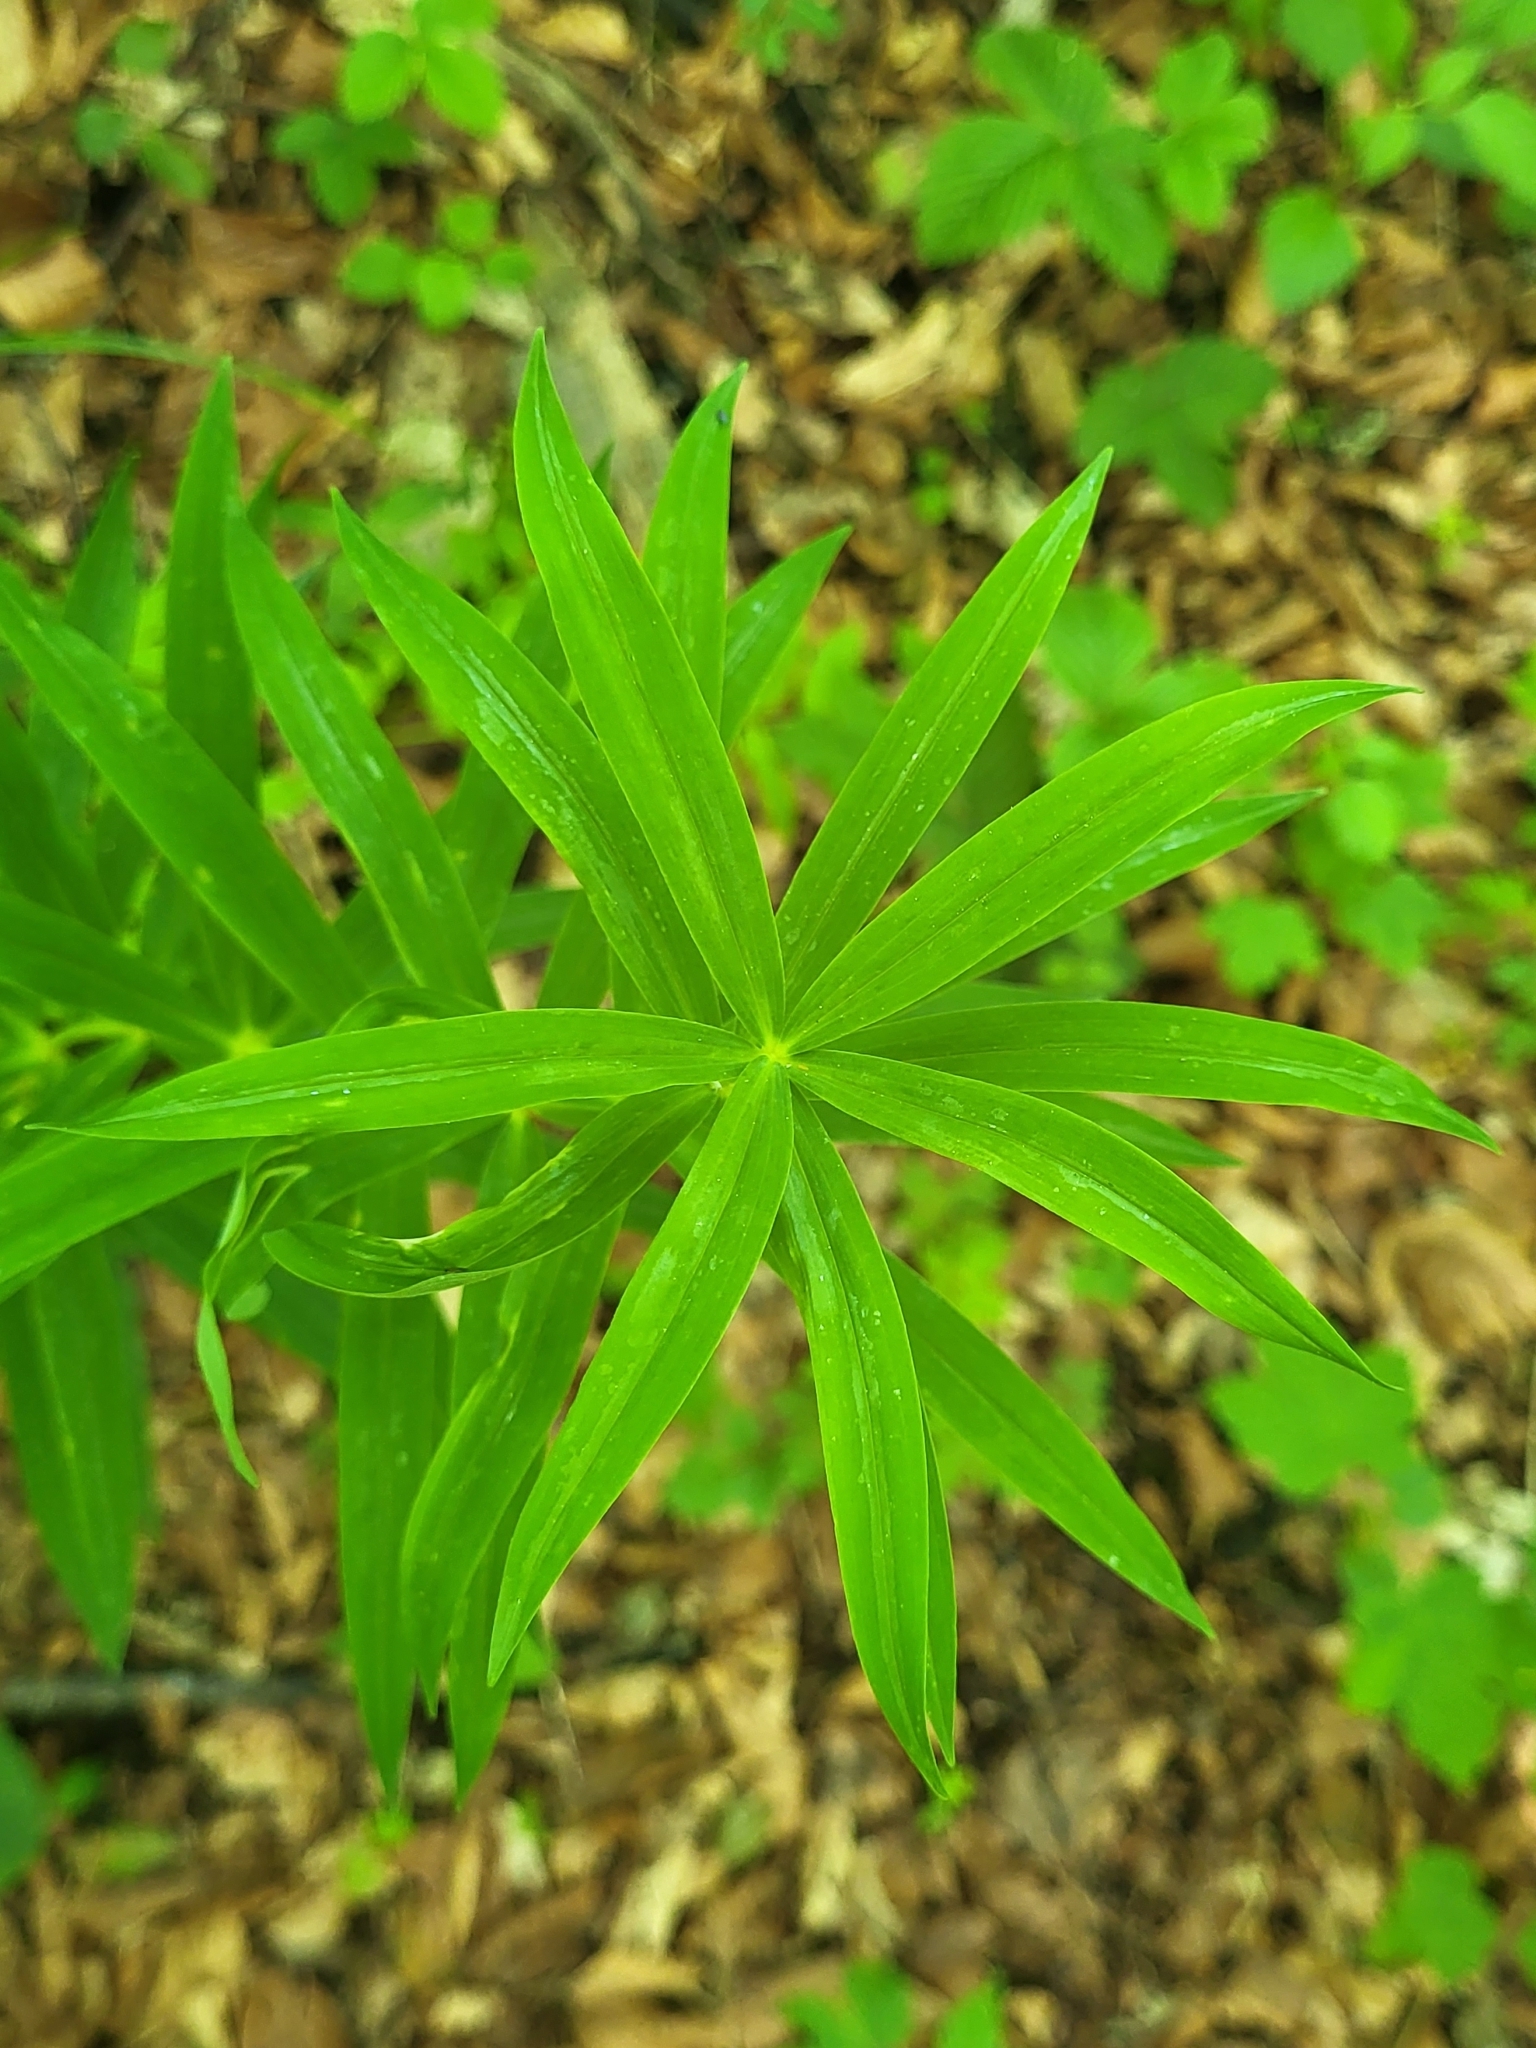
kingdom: Plantae
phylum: Tracheophyta
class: Liliopsida
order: Asparagales
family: Asparagaceae
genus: Polygonatum
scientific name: Polygonatum verticillatum
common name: Whorled solomon's-seal
